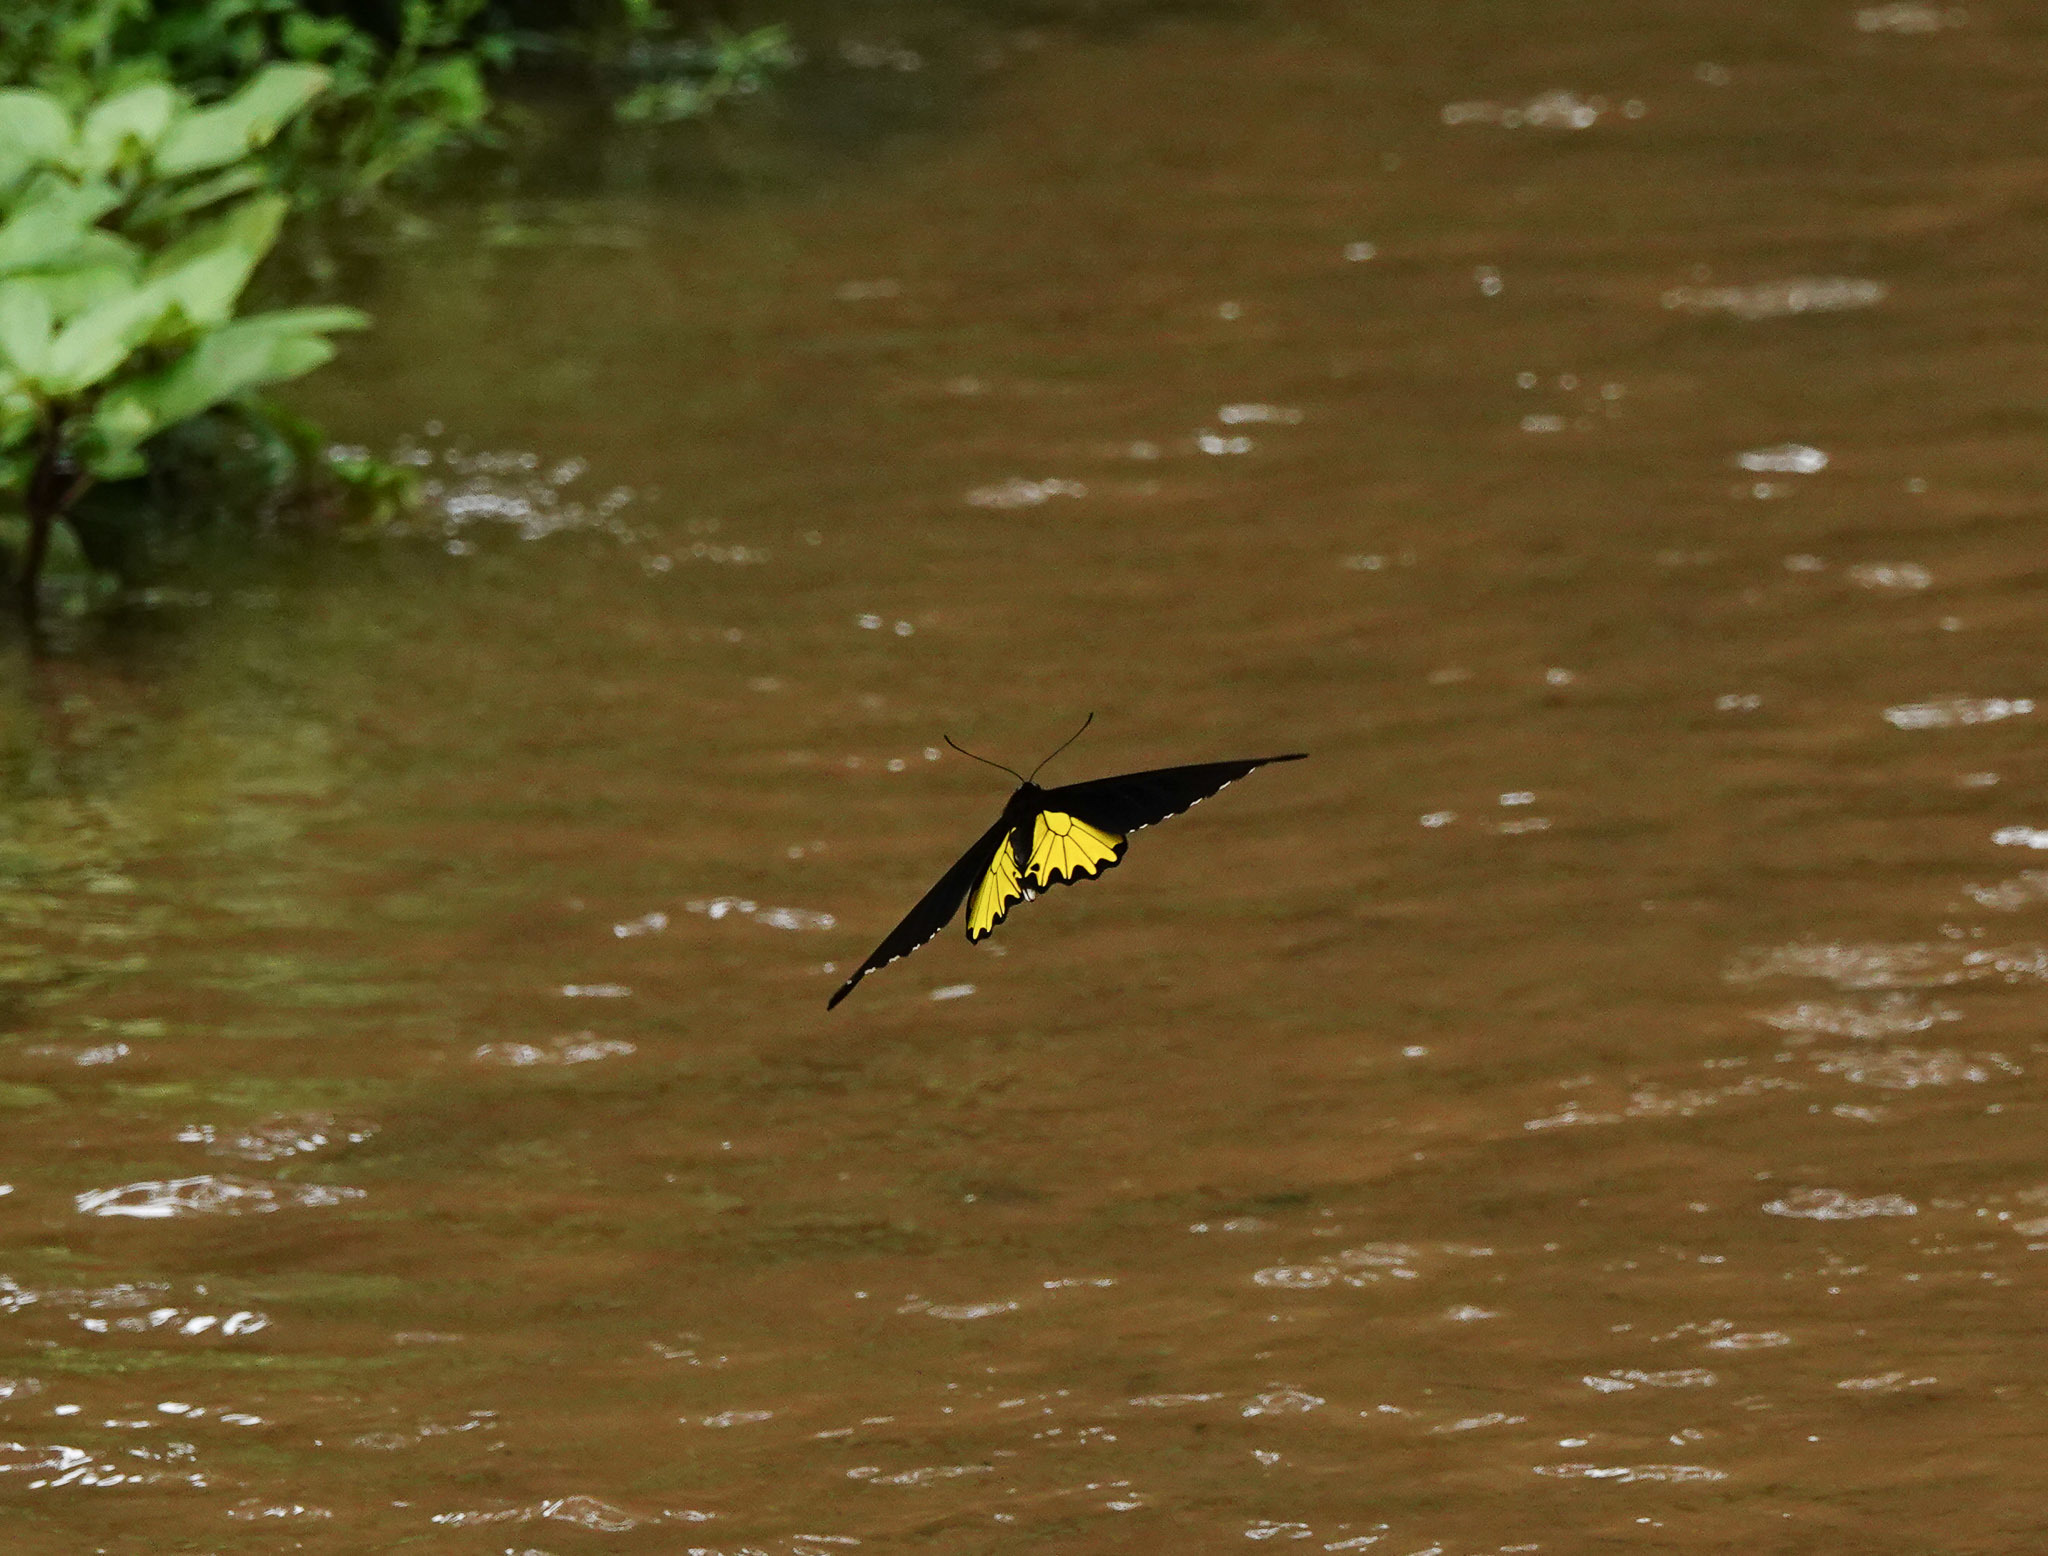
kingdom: Animalia
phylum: Arthropoda
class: Insecta
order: Lepidoptera
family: Papilionidae
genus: Troides
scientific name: Troides helena
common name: Common birdwing
